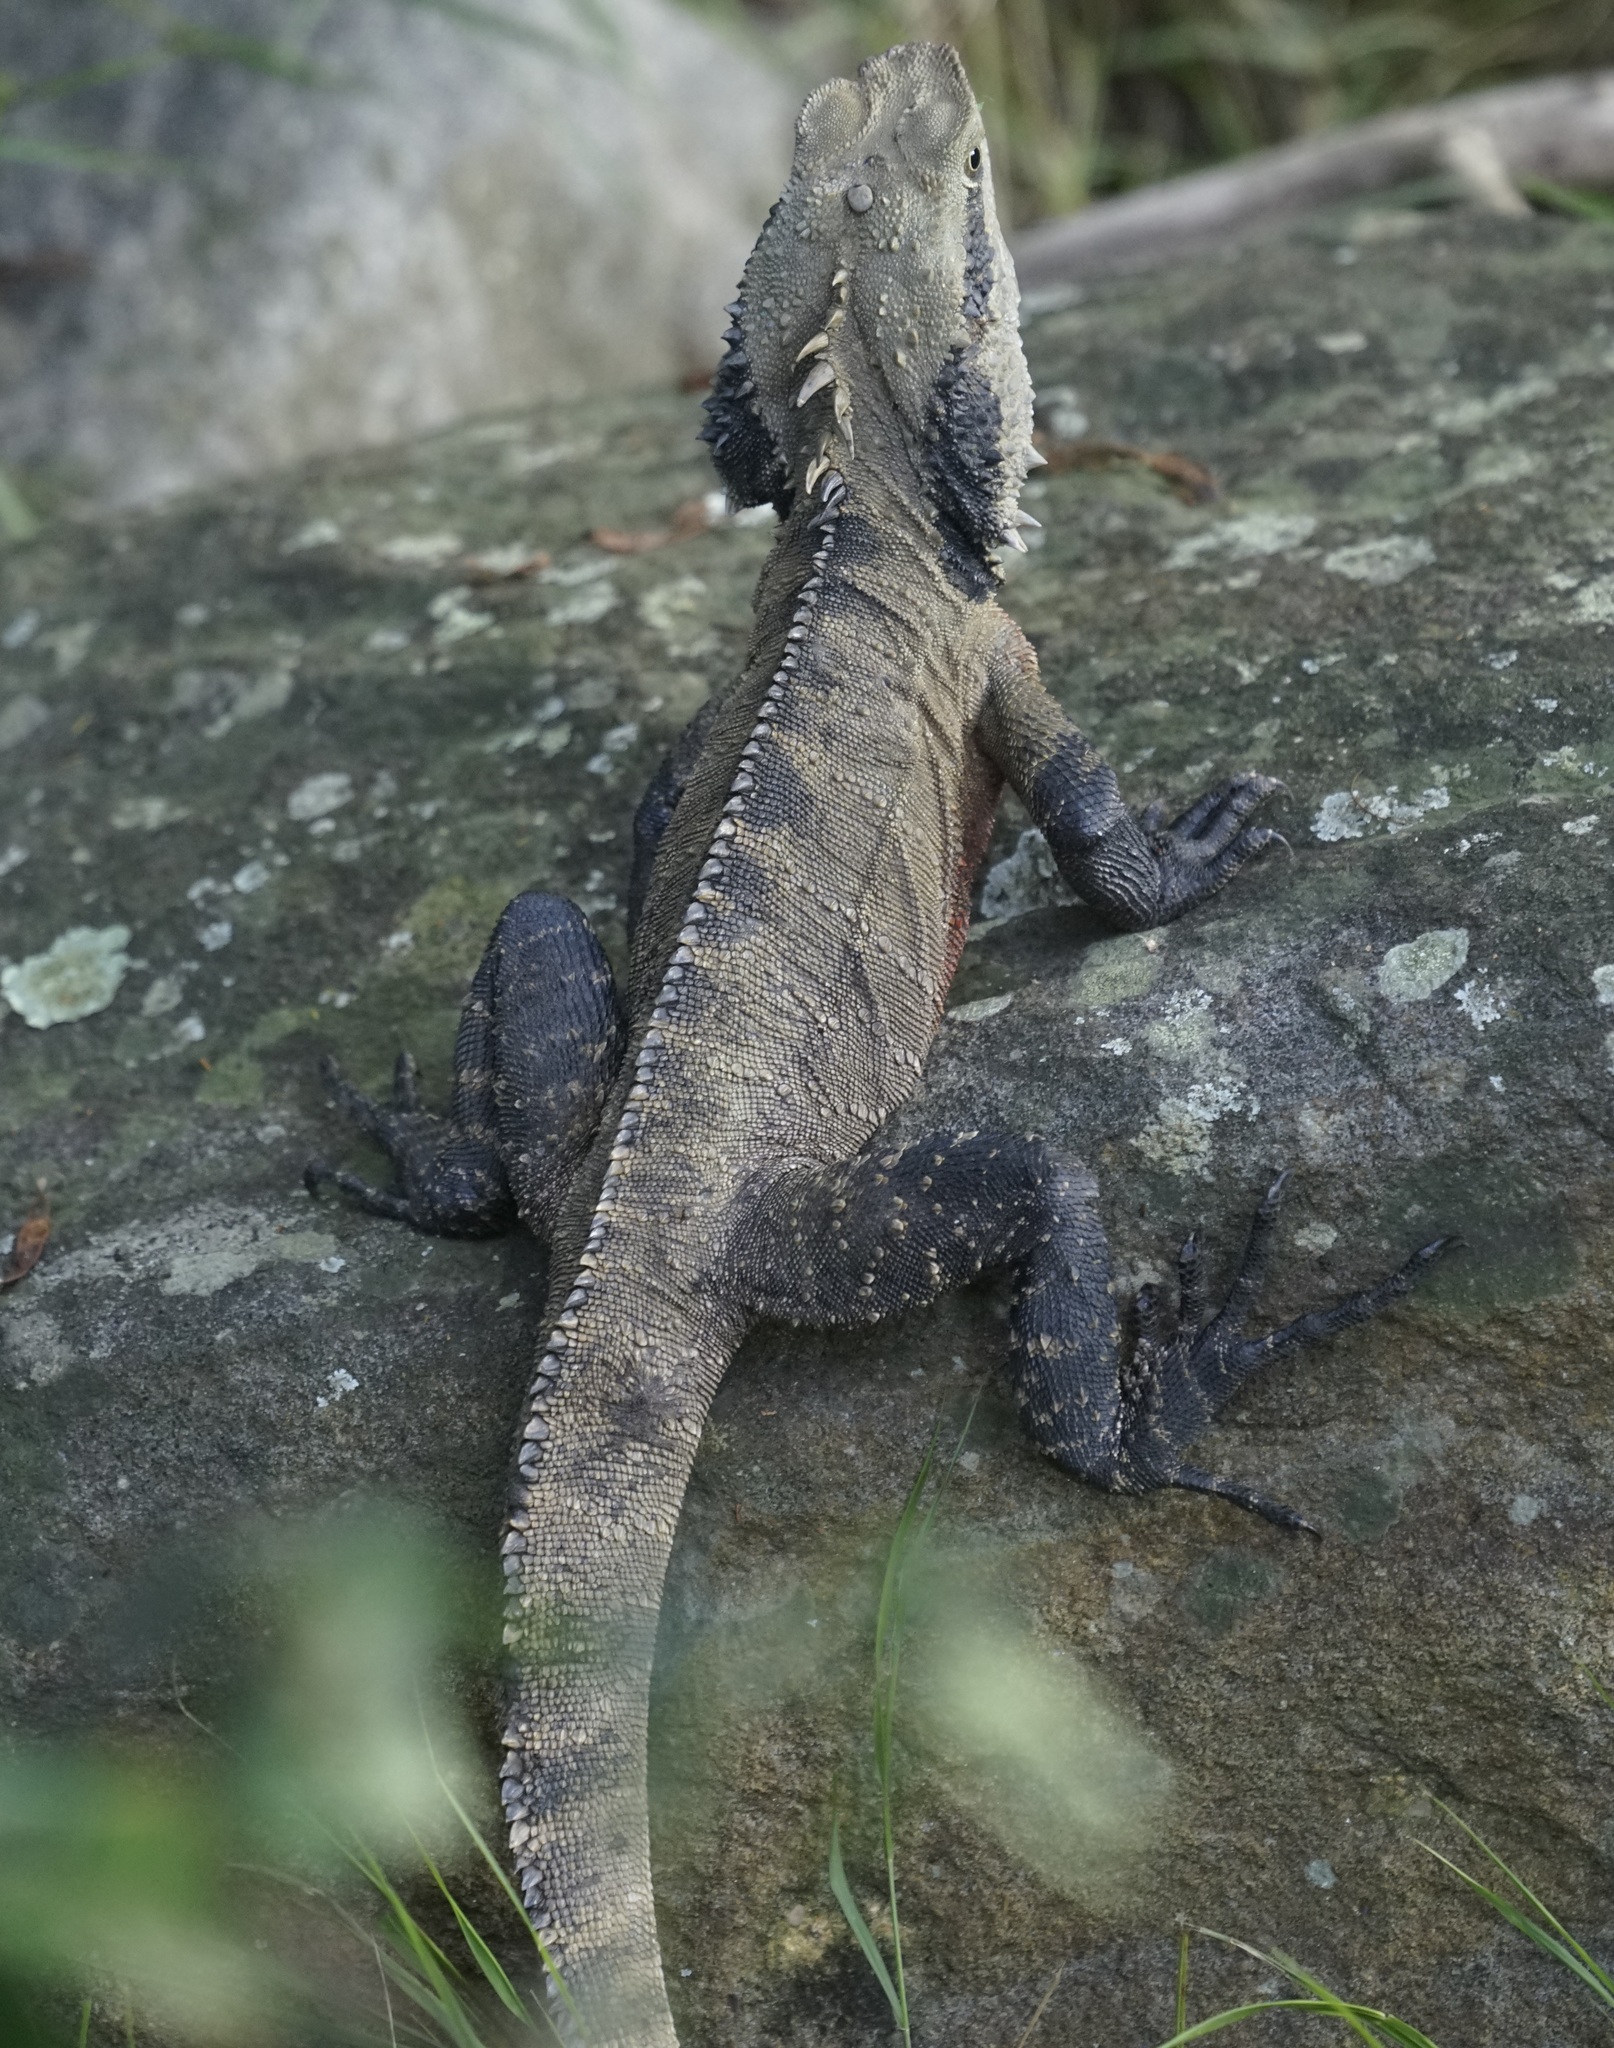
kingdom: Animalia
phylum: Chordata
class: Squamata
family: Agamidae
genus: Intellagama
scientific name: Intellagama lesueurii
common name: Eastern water dragon
